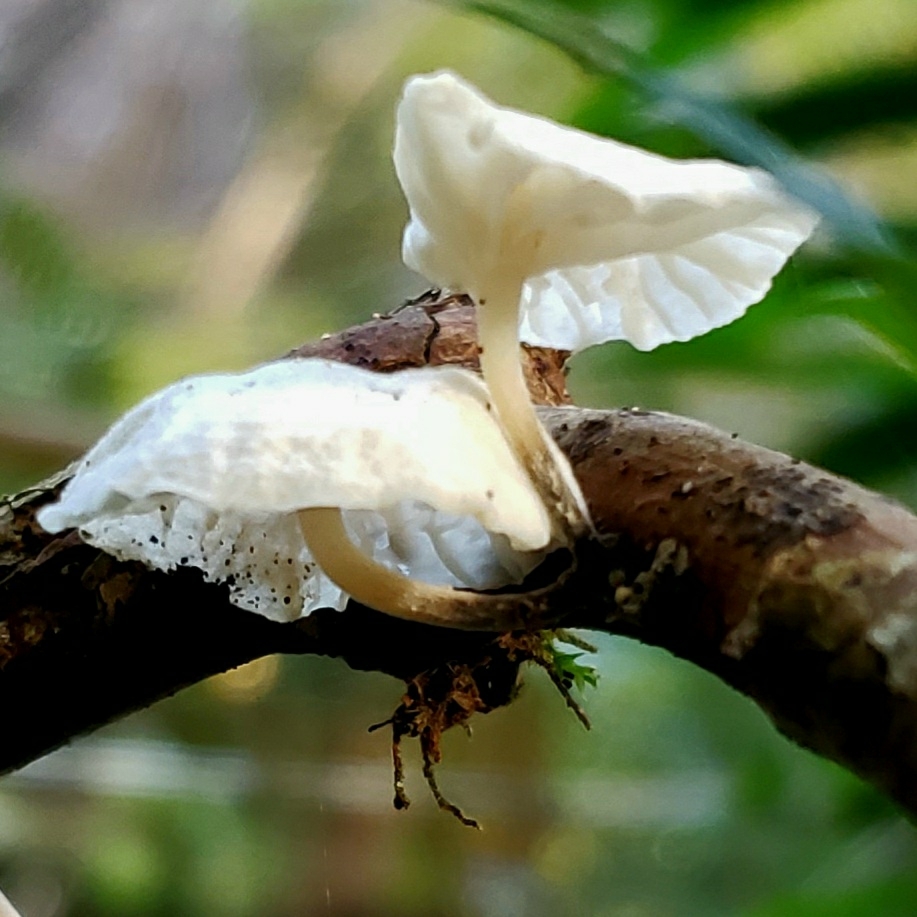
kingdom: Fungi
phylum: Basidiomycota
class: Agaricomycetes
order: Agaricales
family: Omphalotaceae
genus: Marasmiellus
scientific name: Marasmiellus candidus
